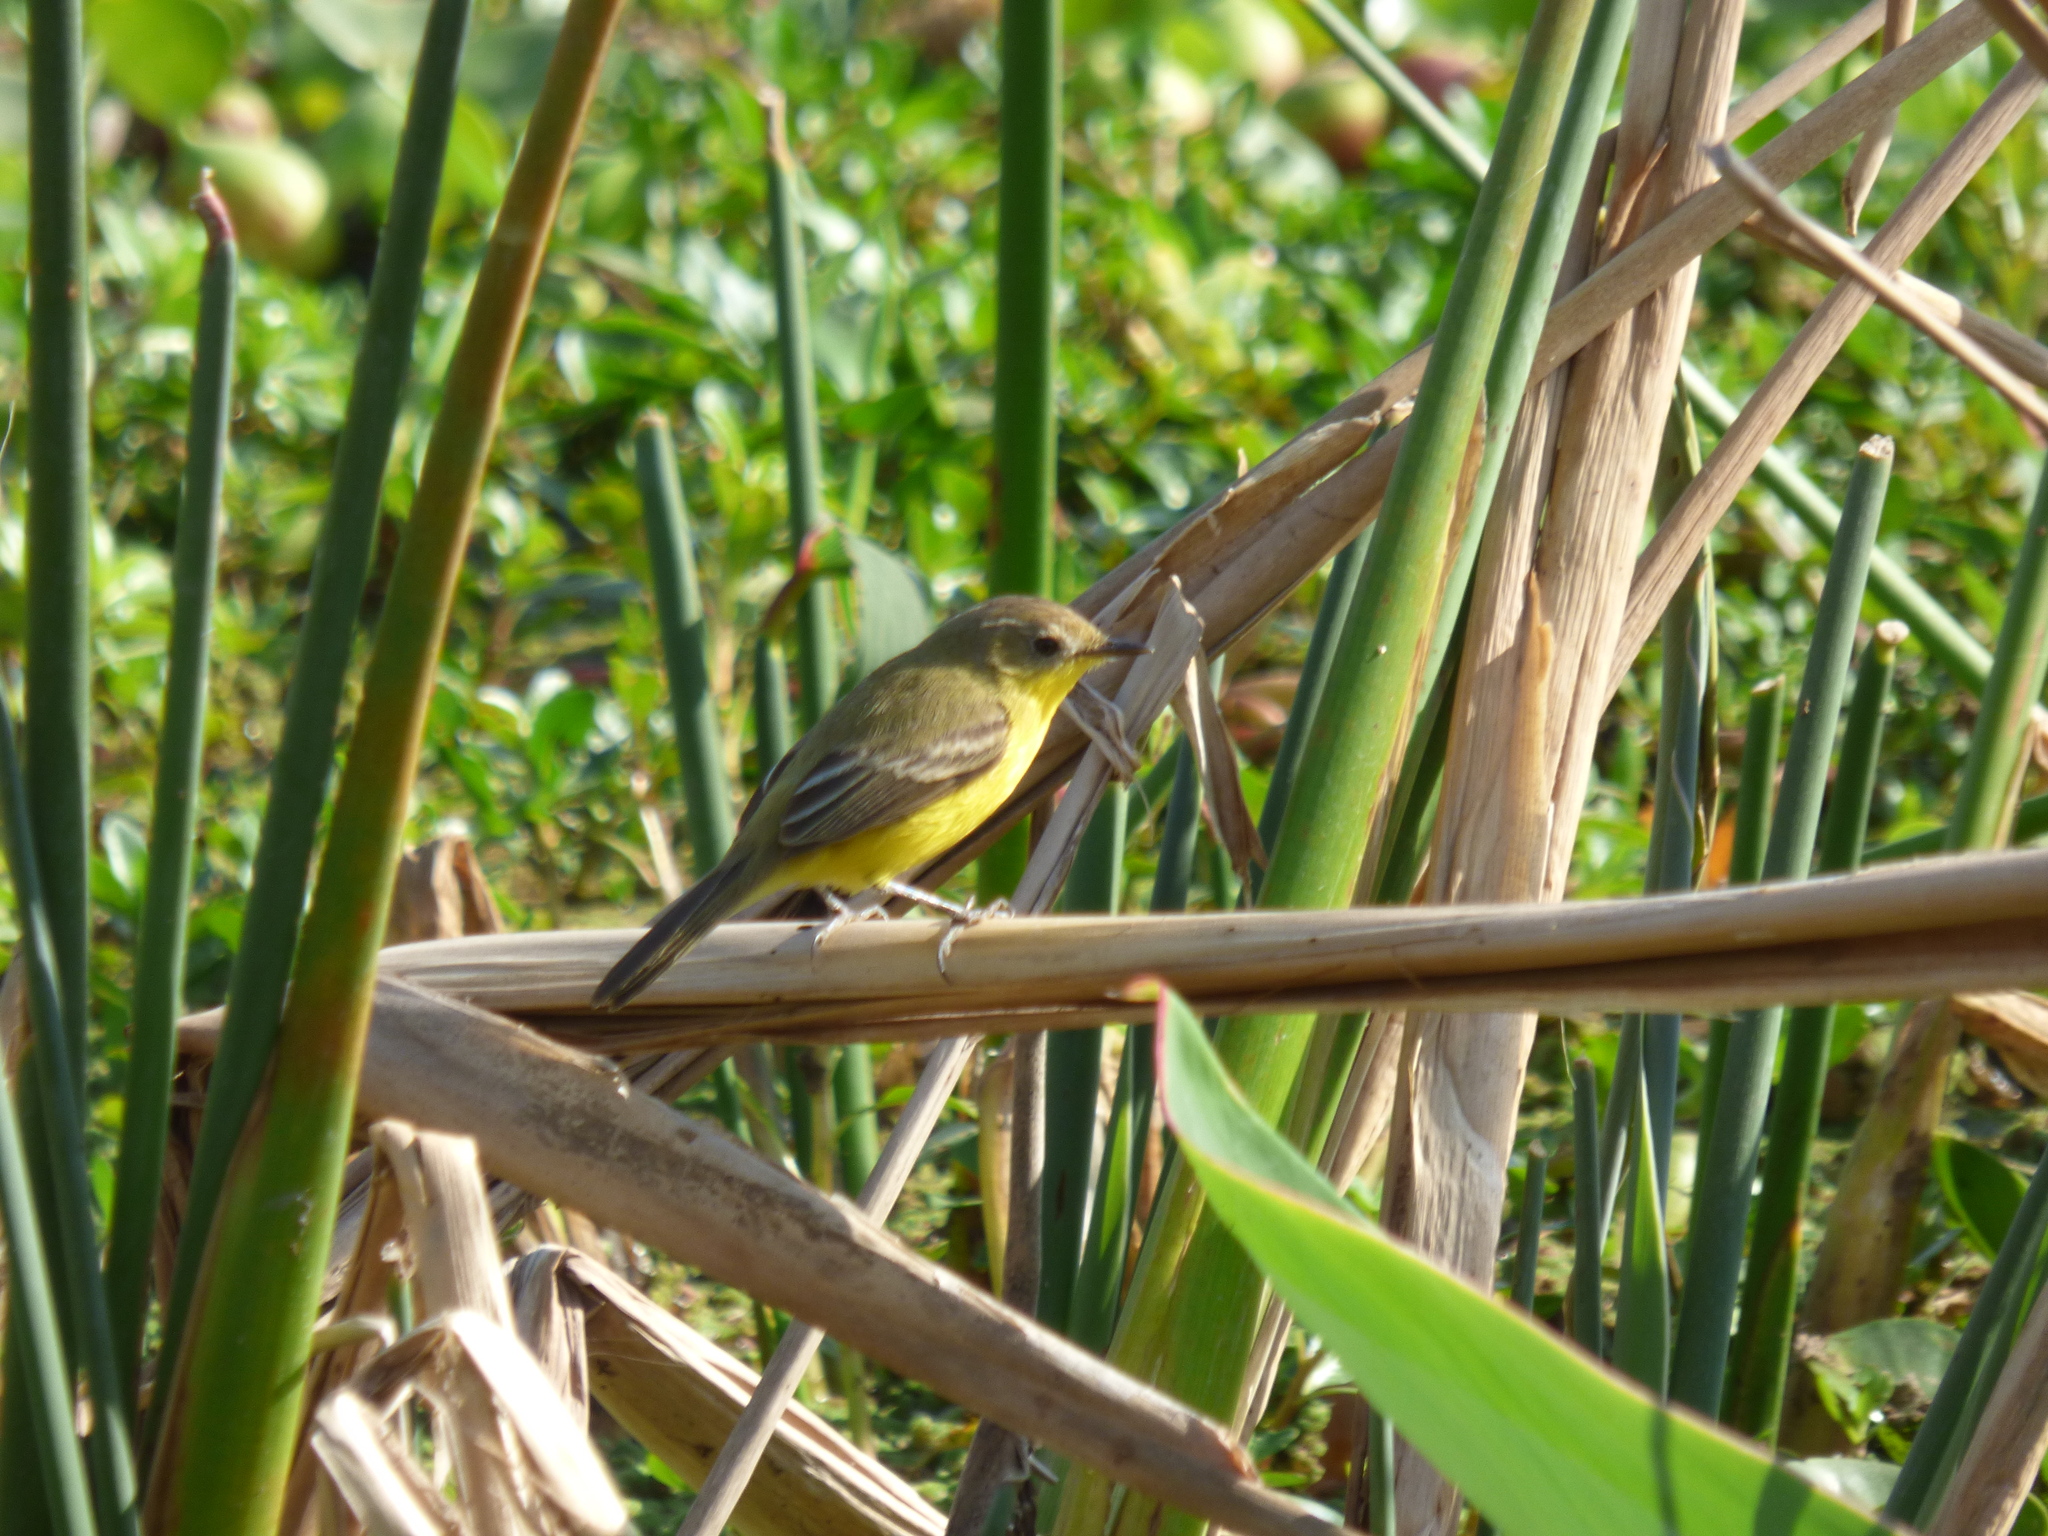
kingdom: Animalia
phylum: Chordata
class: Aves
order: Passeriformes
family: Tyrannidae
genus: Pseudocolopteryx
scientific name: Pseudocolopteryx dinelliana
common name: Dinelli's doradito
